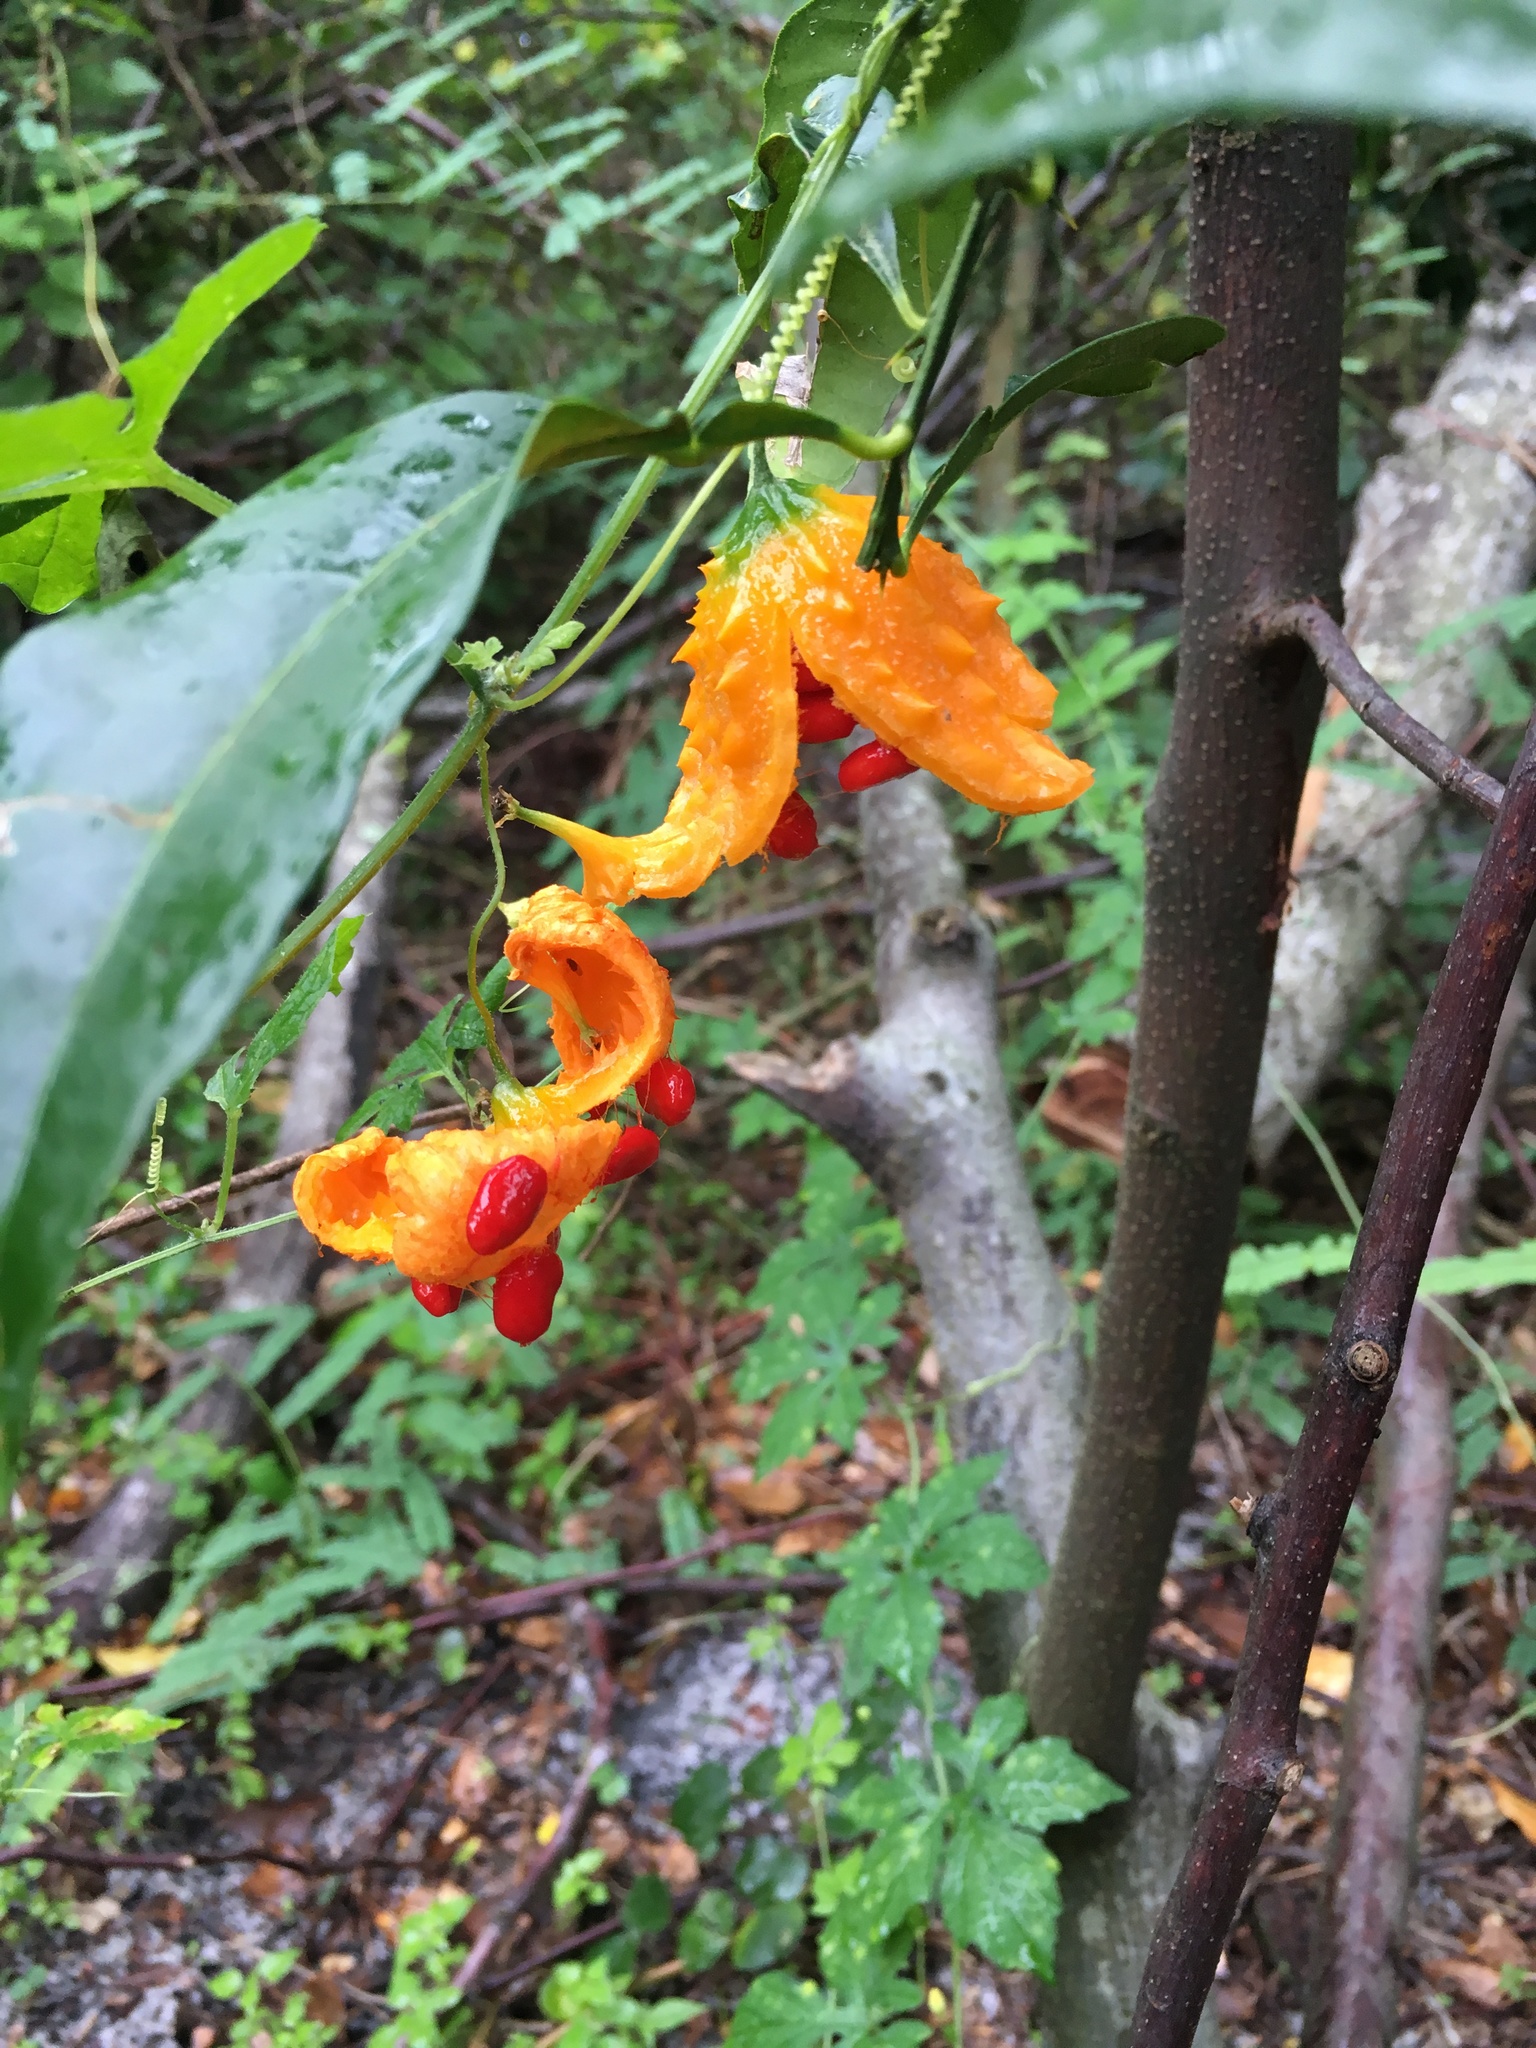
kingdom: Plantae
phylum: Tracheophyta
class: Magnoliopsida
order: Cucurbitales
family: Cucurbitaceae
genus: Momordica
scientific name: Momordica charantia
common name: Balsampear
